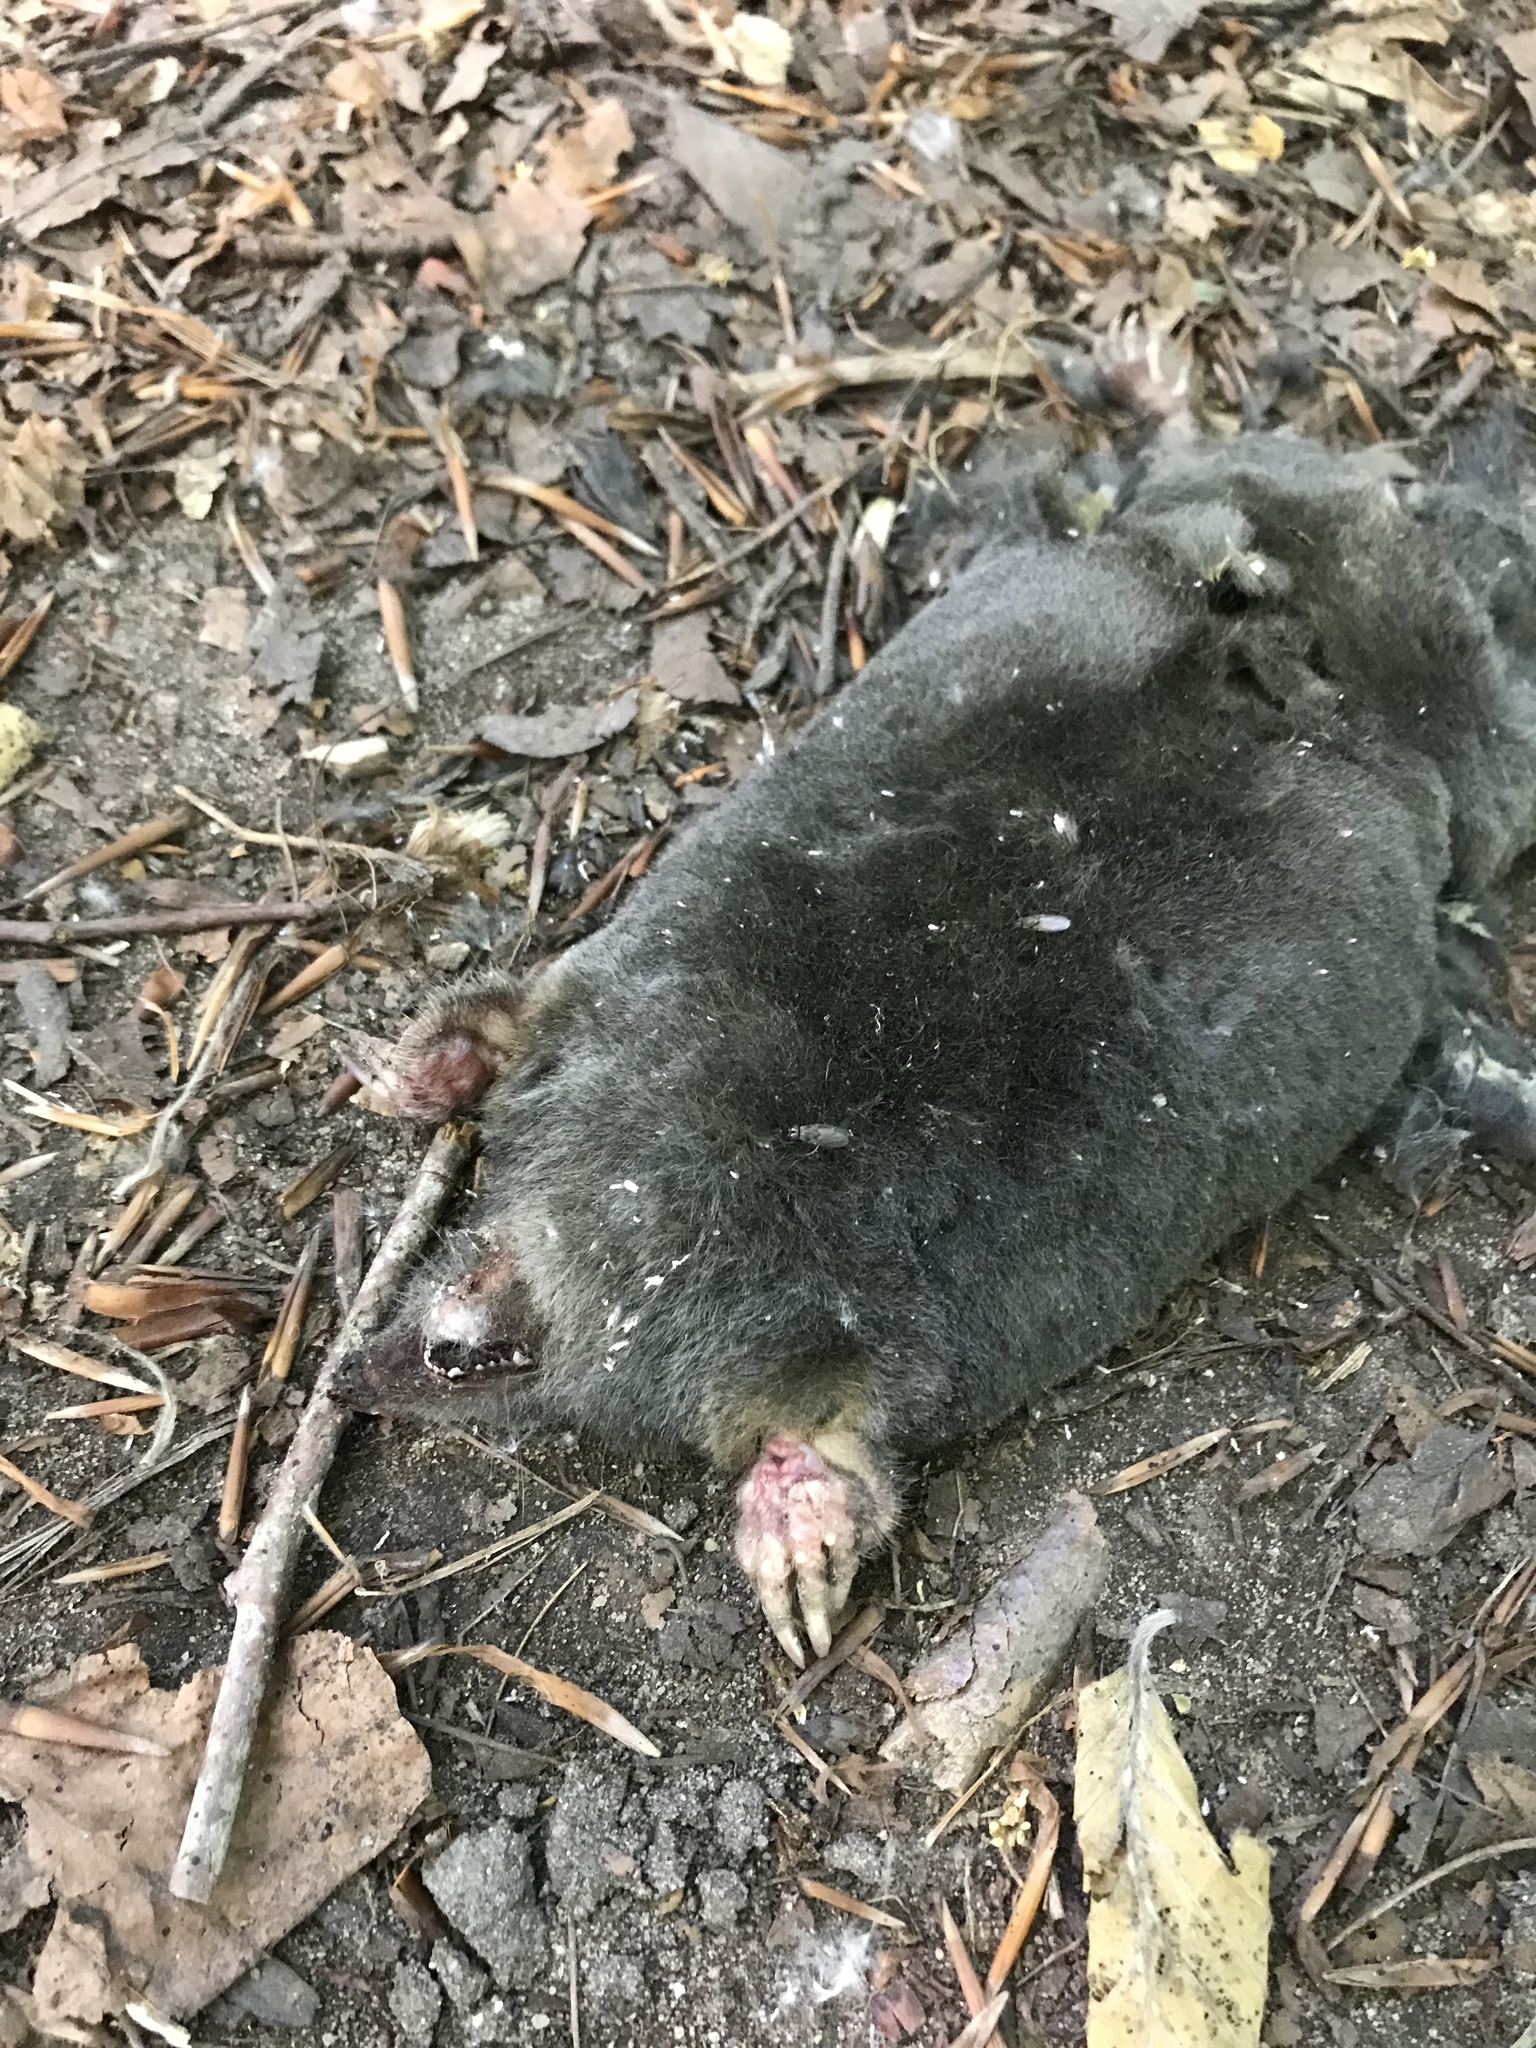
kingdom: Animalia
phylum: Chordata
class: Mammalia
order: Soricomorpha
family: Talpidae
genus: Talpa
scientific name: Talpa europaea
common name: European mole
